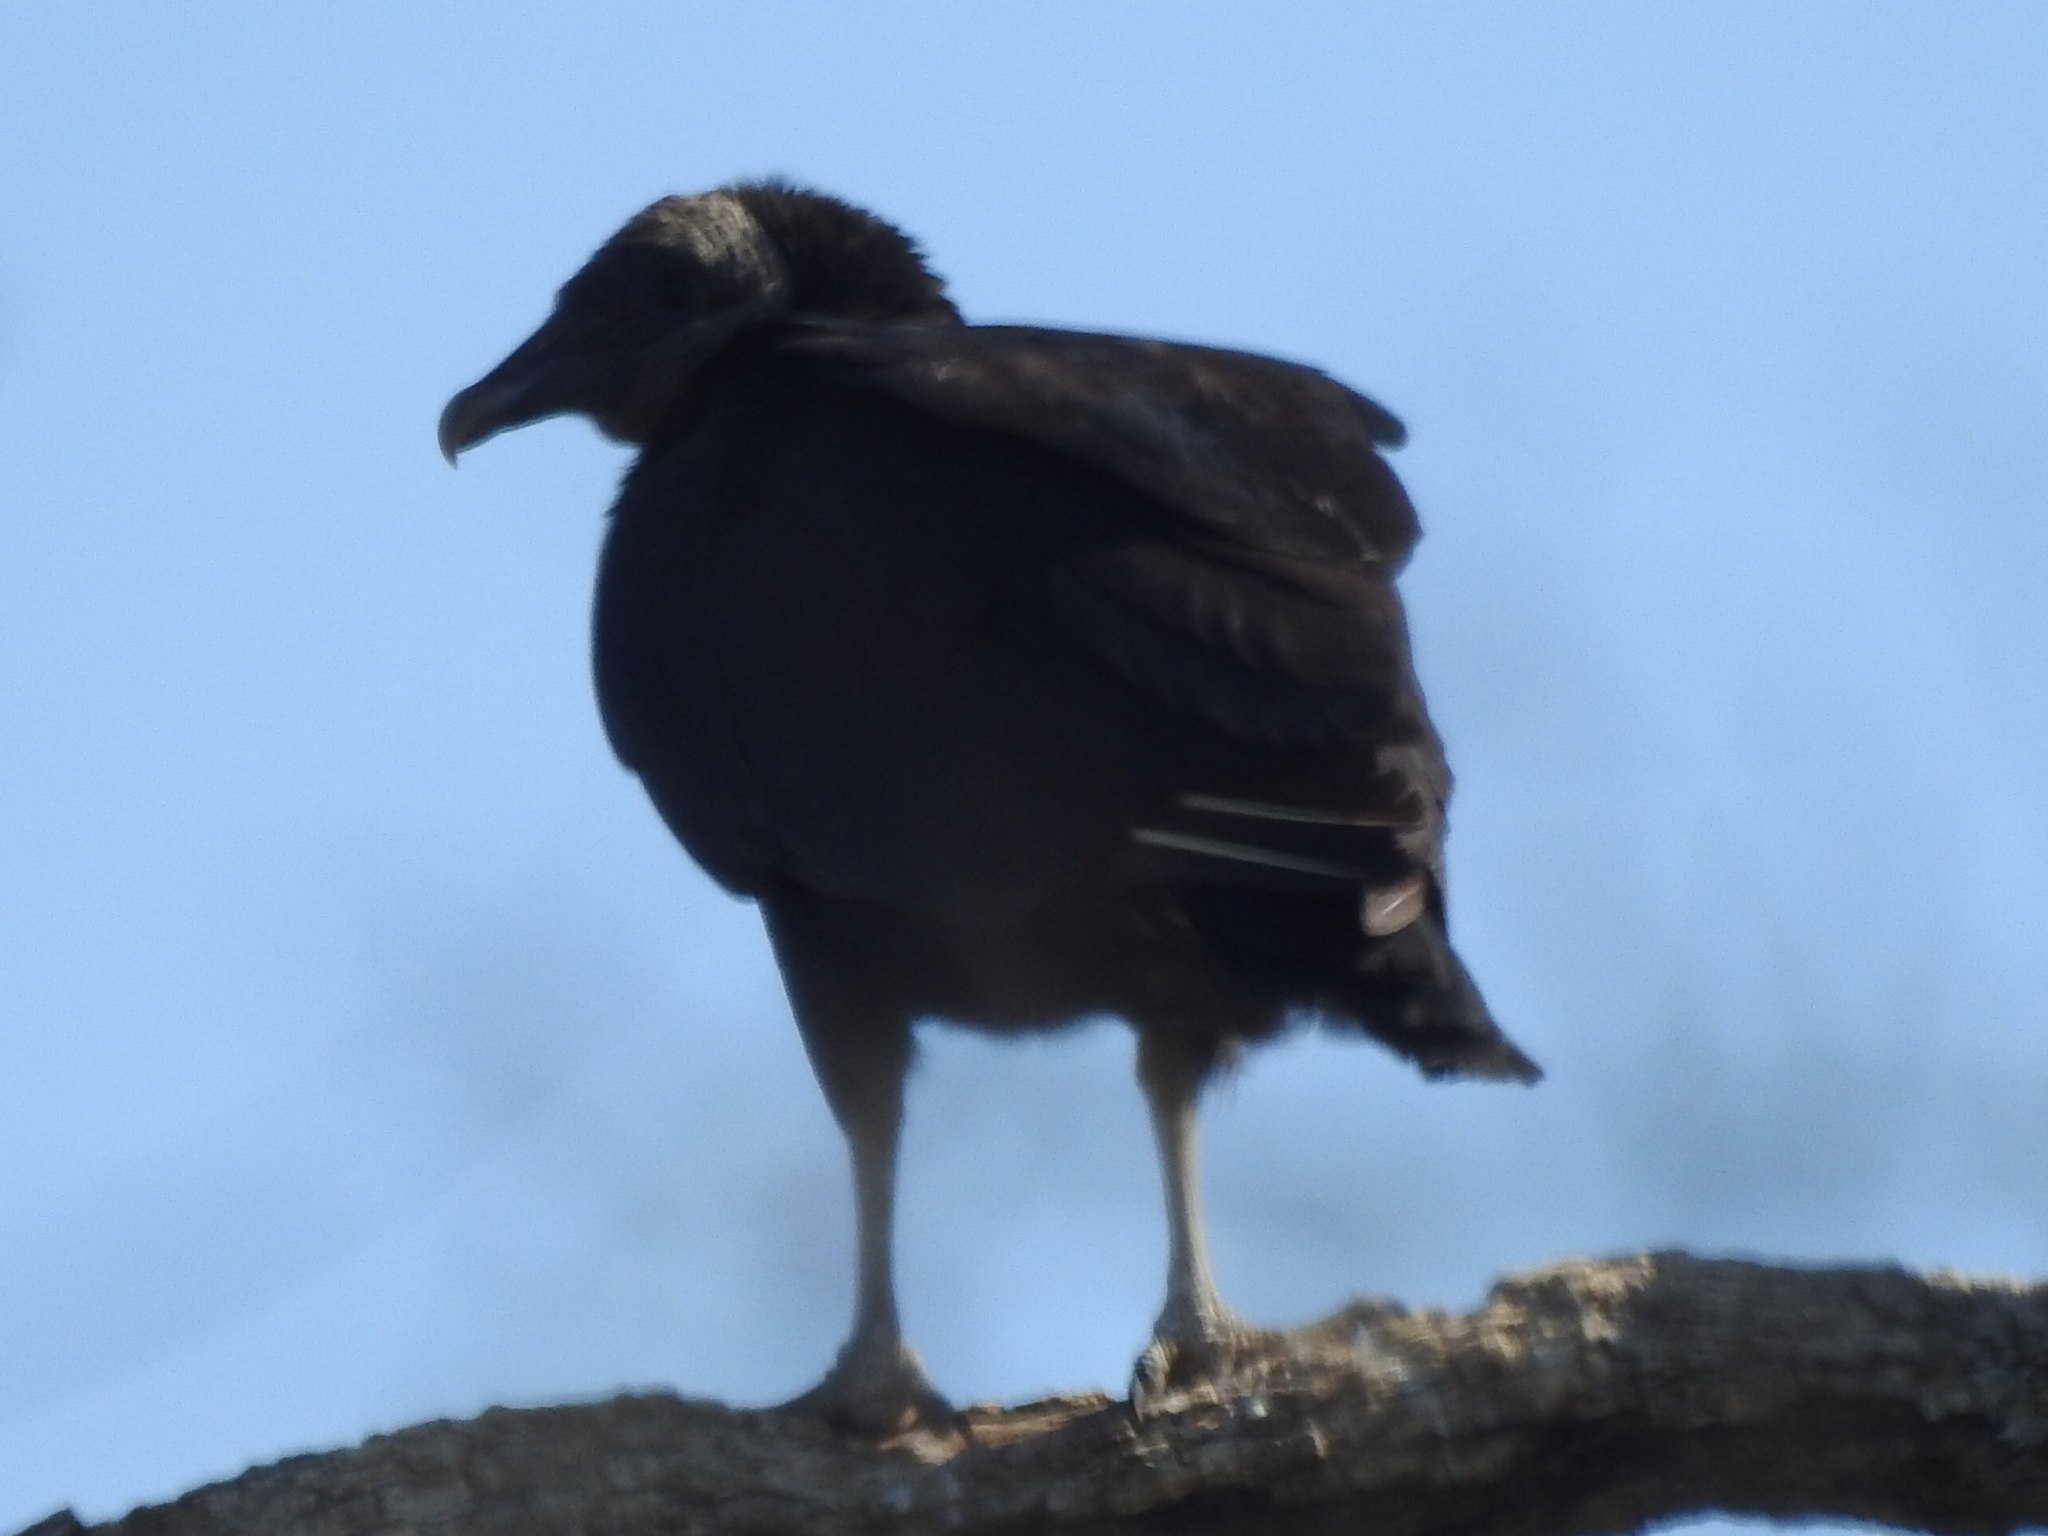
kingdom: Animalia
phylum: Chordata
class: Aves
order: Accipitriformes
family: Cathartidae
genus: Coragyps
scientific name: Coragyps atratus
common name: Black vulture
